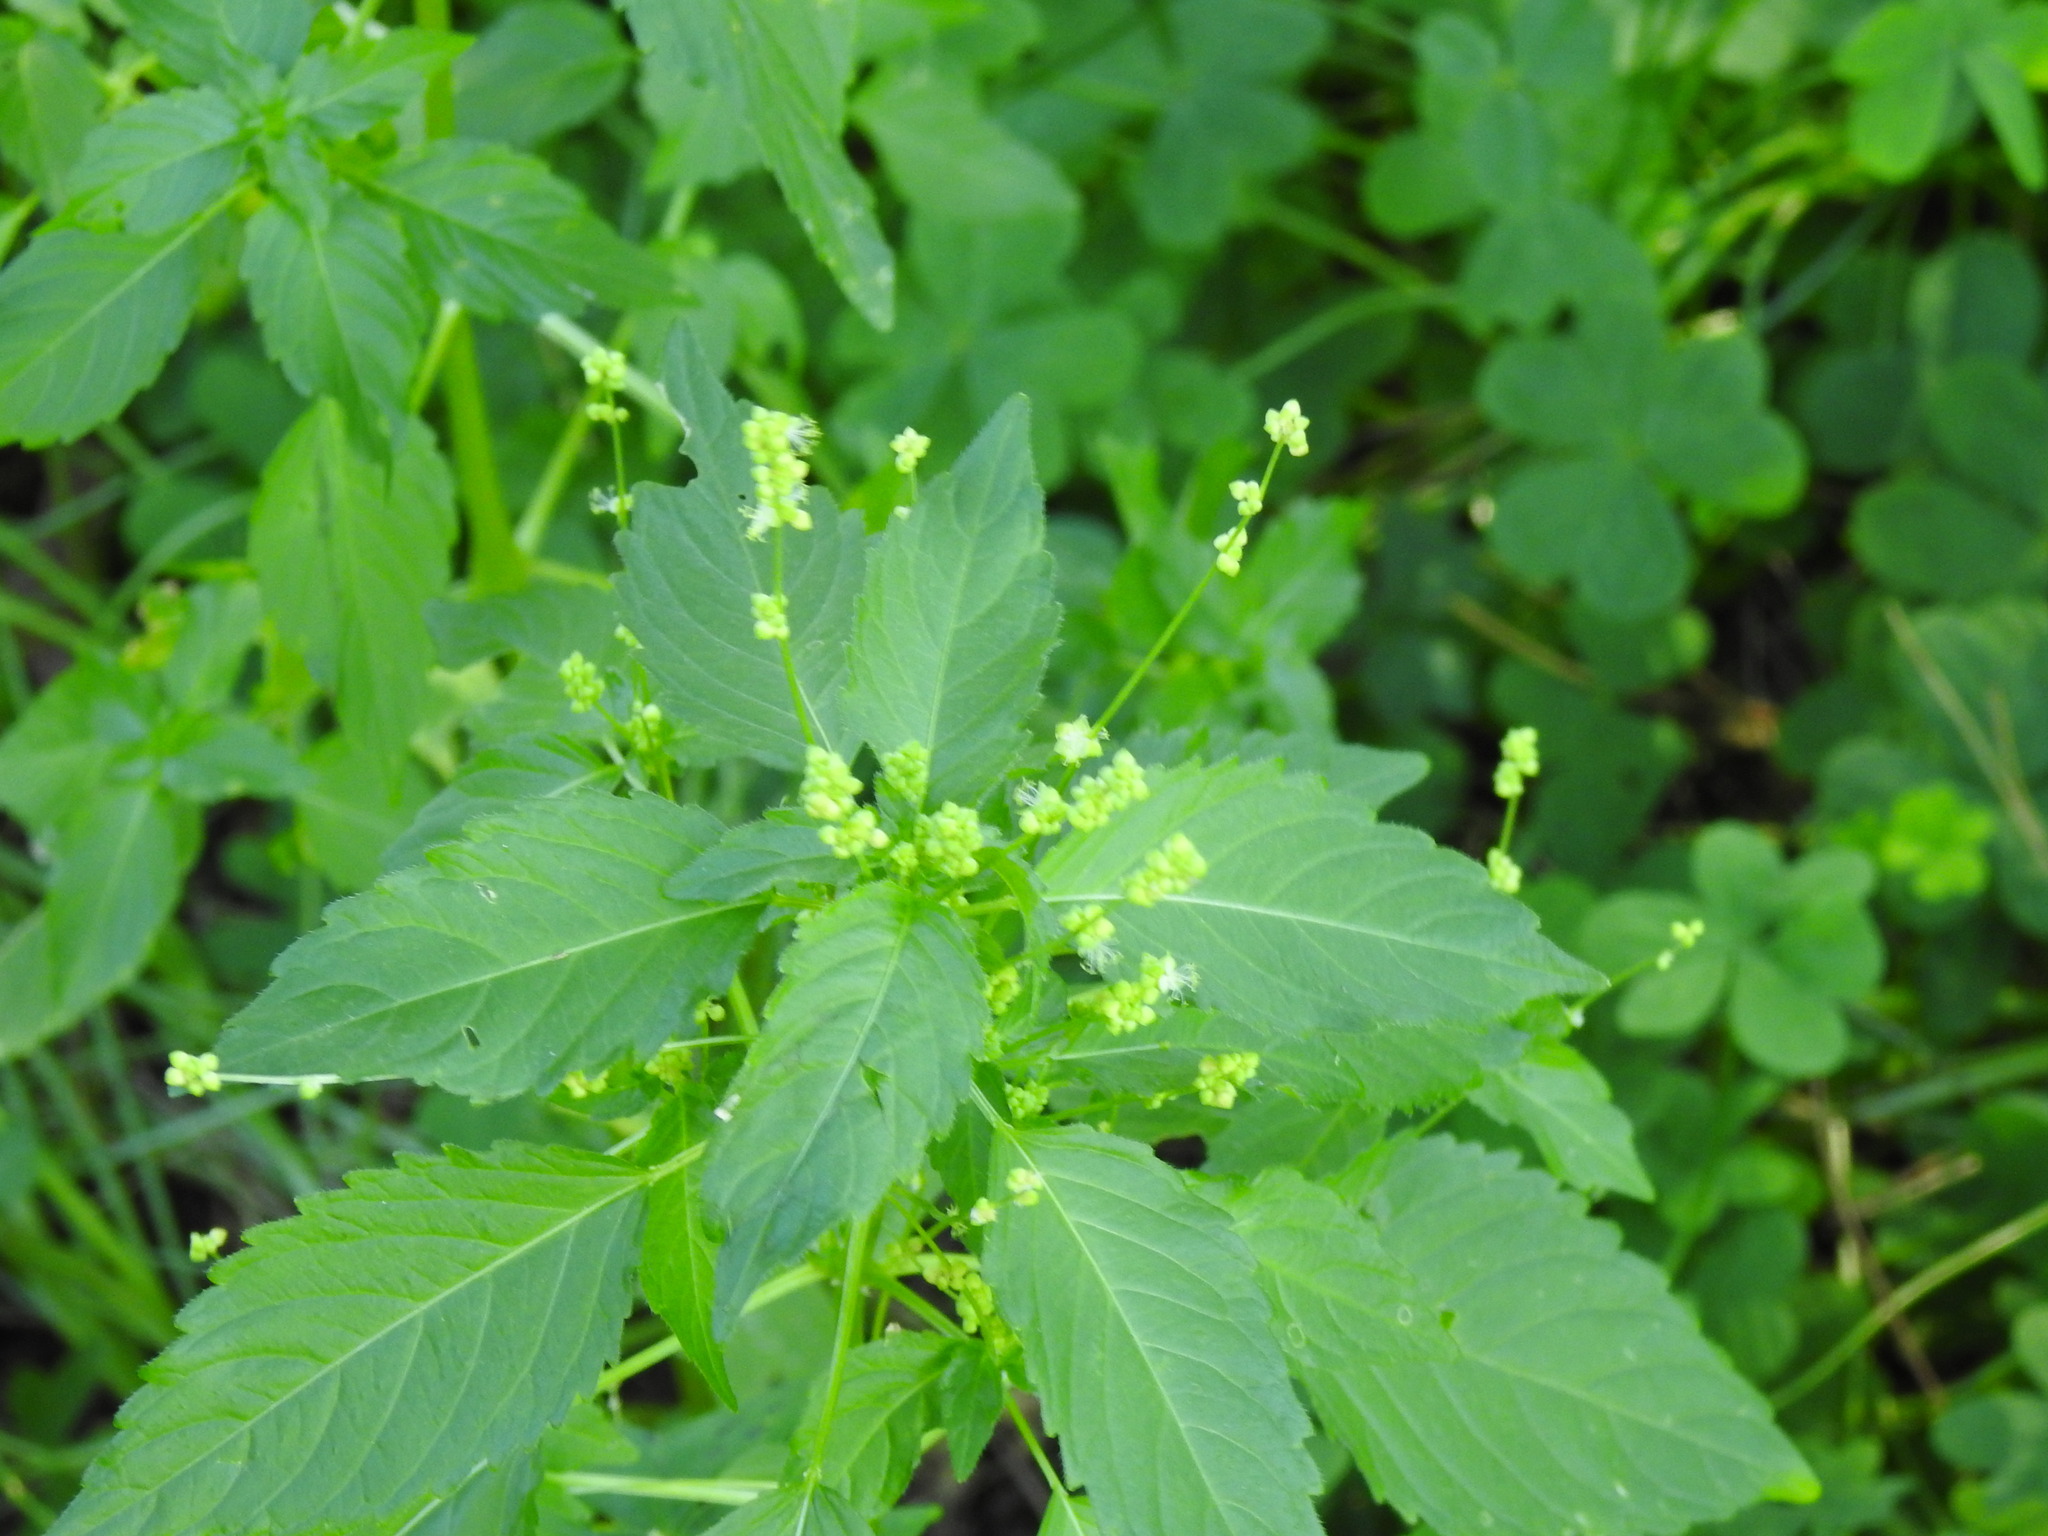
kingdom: Plantae
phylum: Tracheophyta
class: Magnoliopsida
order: Malpighiales
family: Euphorbiaceae
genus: Mercurialis
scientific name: Mercurialis annua
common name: Annual mercury
